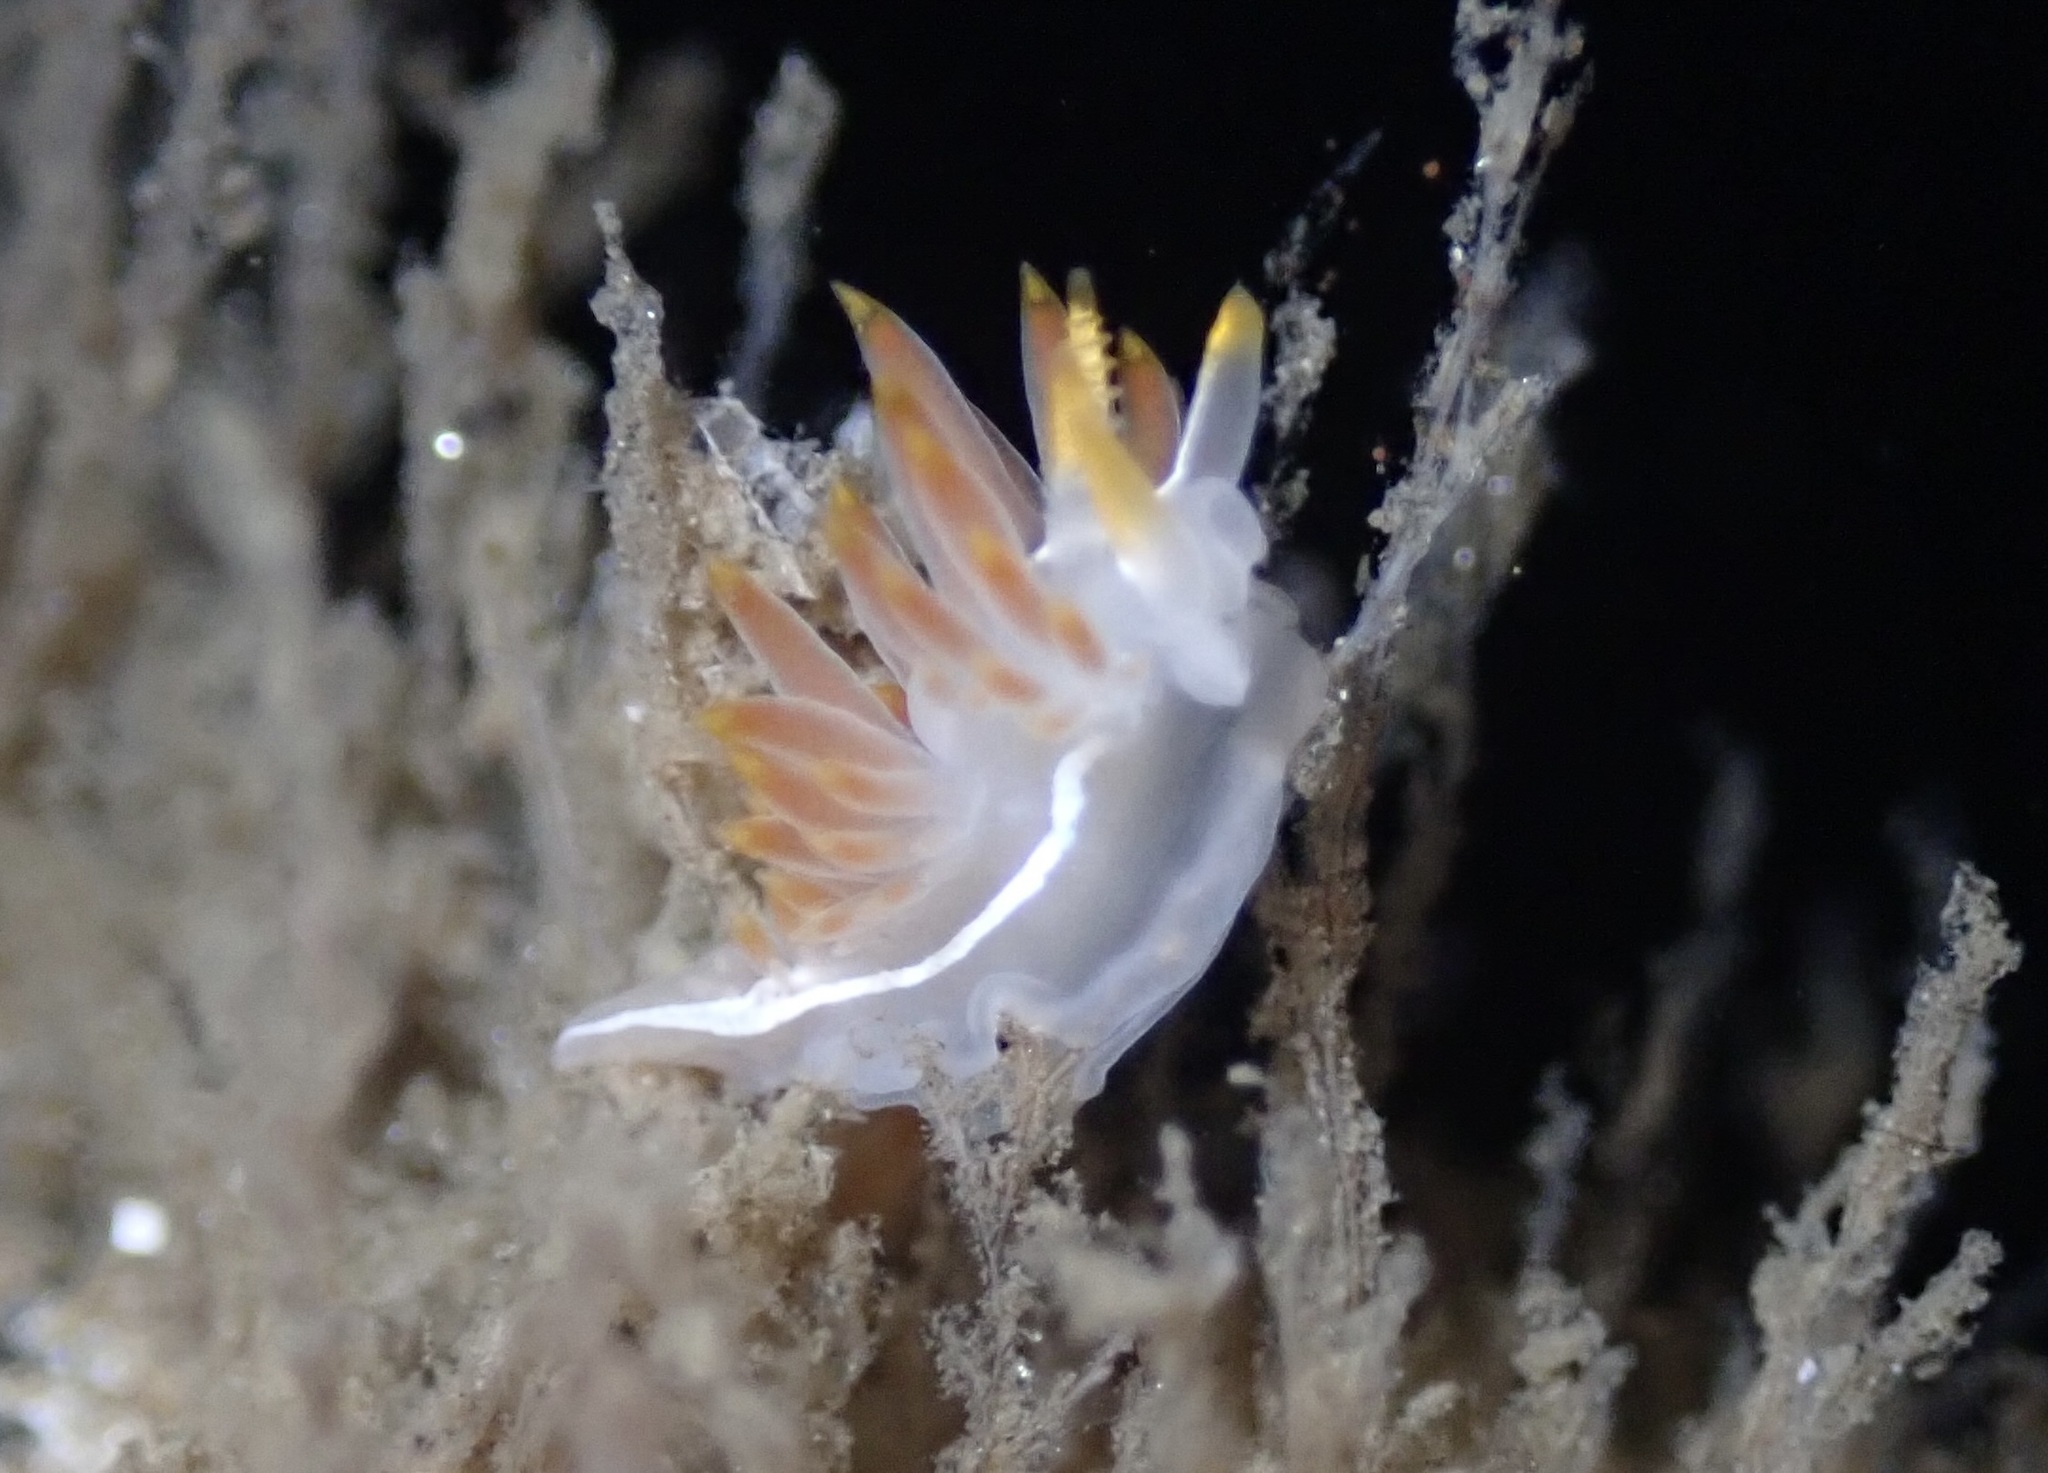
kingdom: Animalia
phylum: Mollusca
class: Gastropoda
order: Nudibranchia
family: Coryphellidae
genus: Coryphella
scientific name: Coryphella trilineata
